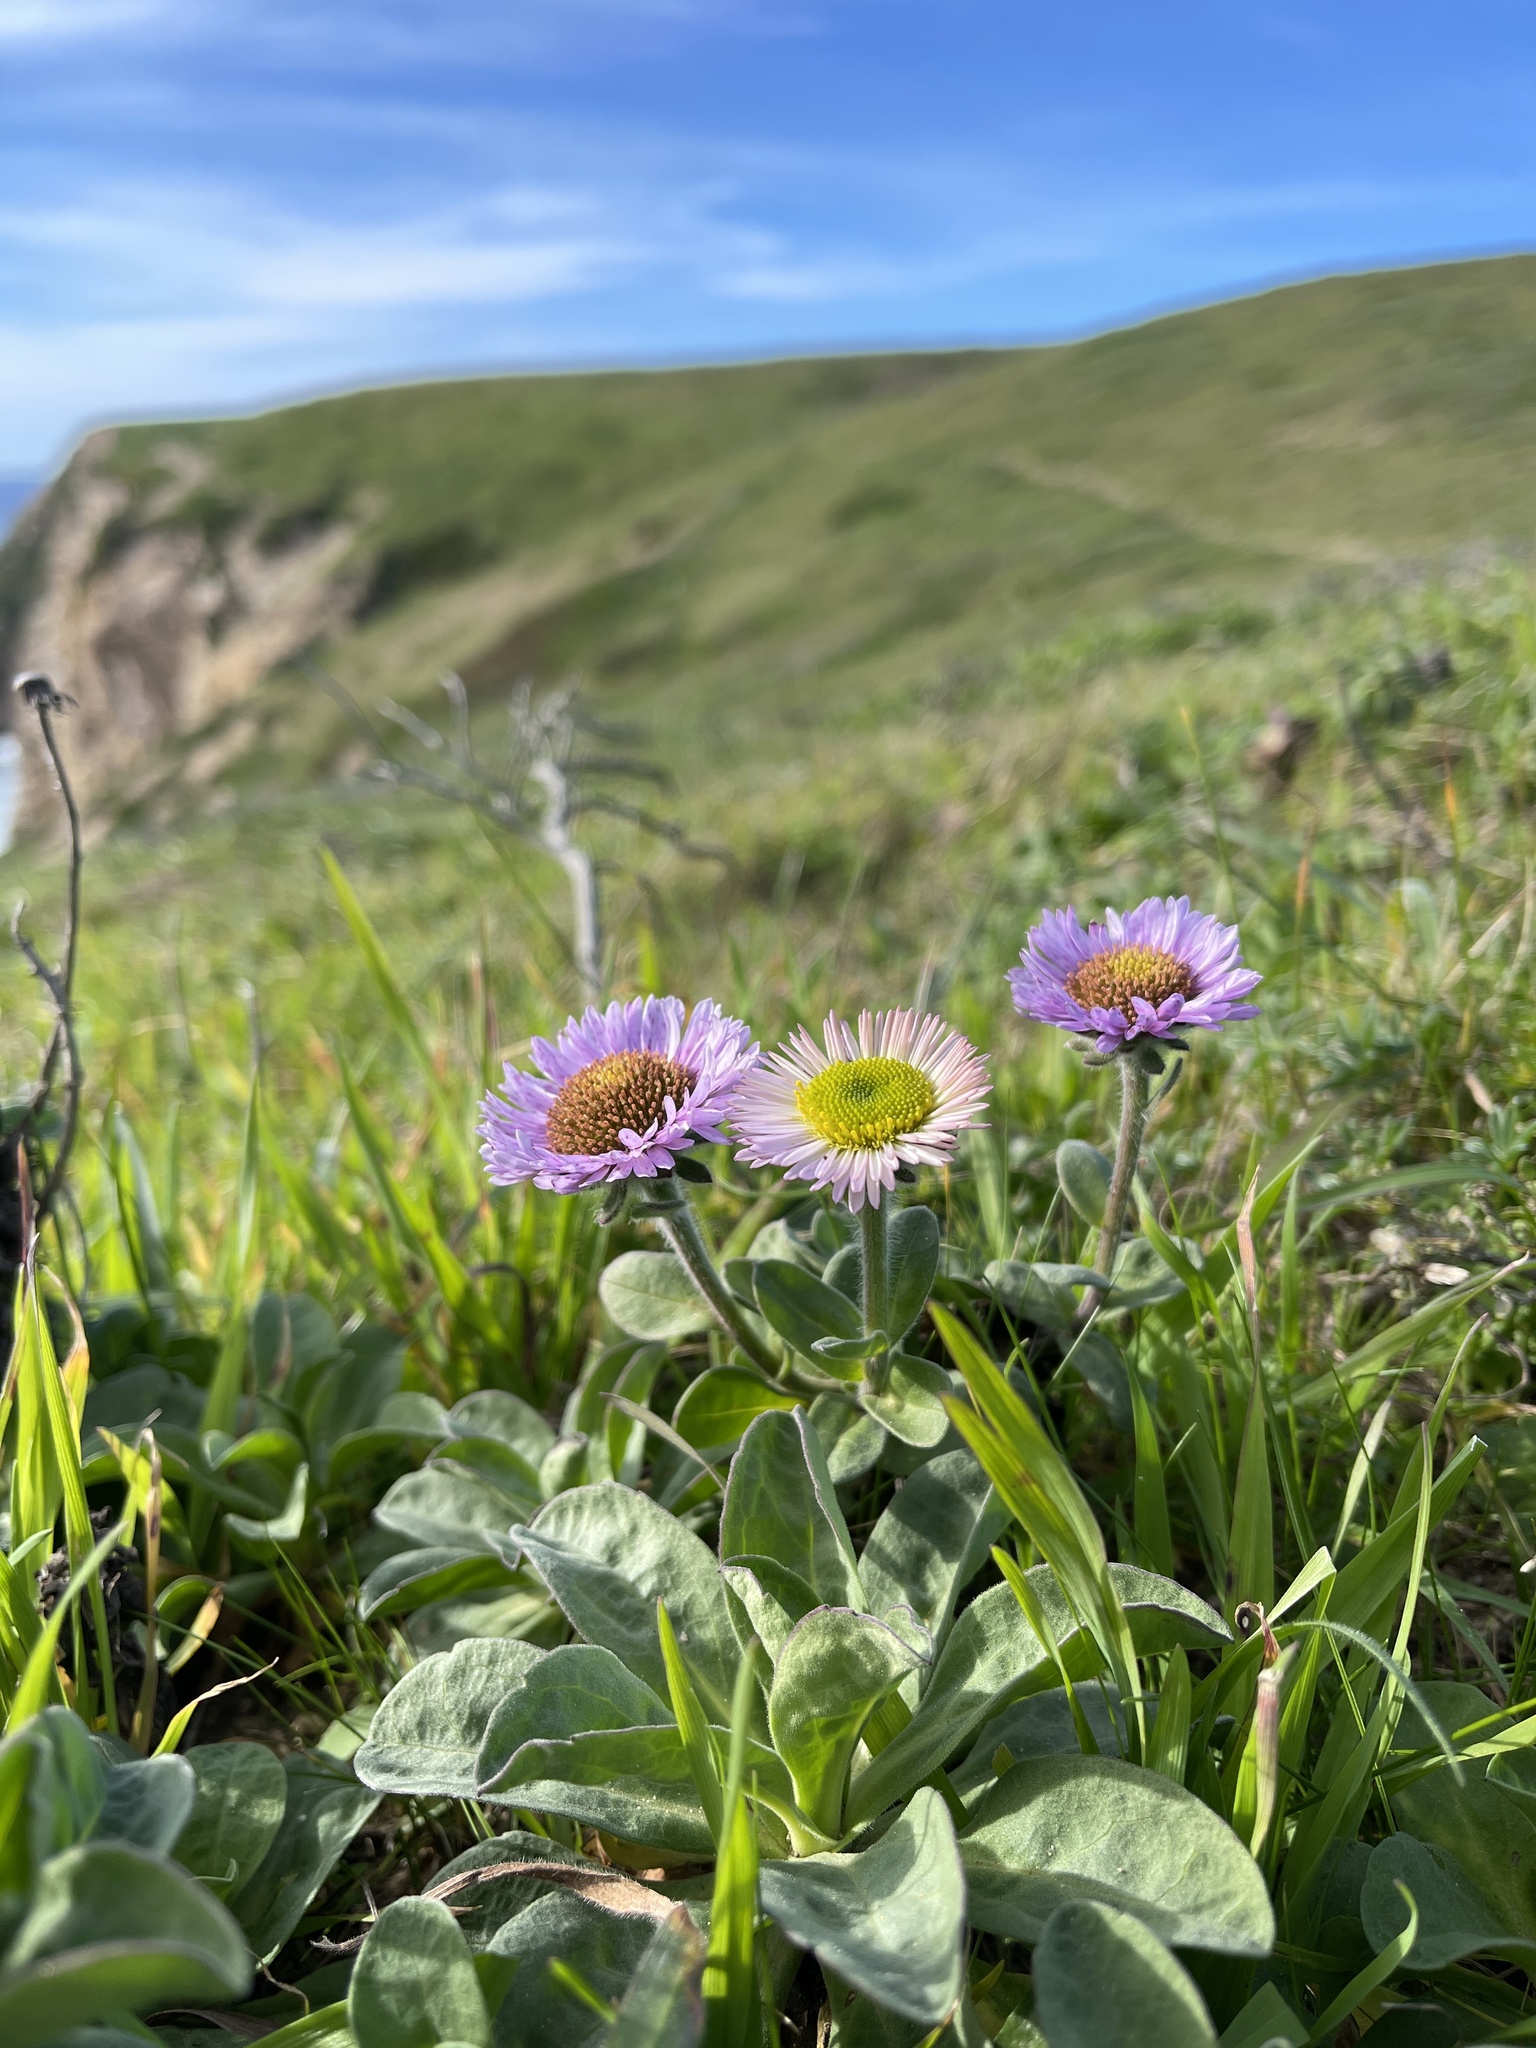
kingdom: Plantae
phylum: Tracheophyta
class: Magnoliopsida
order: Asterales
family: Asteraceae
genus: Erigeron
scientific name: Erigeron glaucus
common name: Seaside daisy
